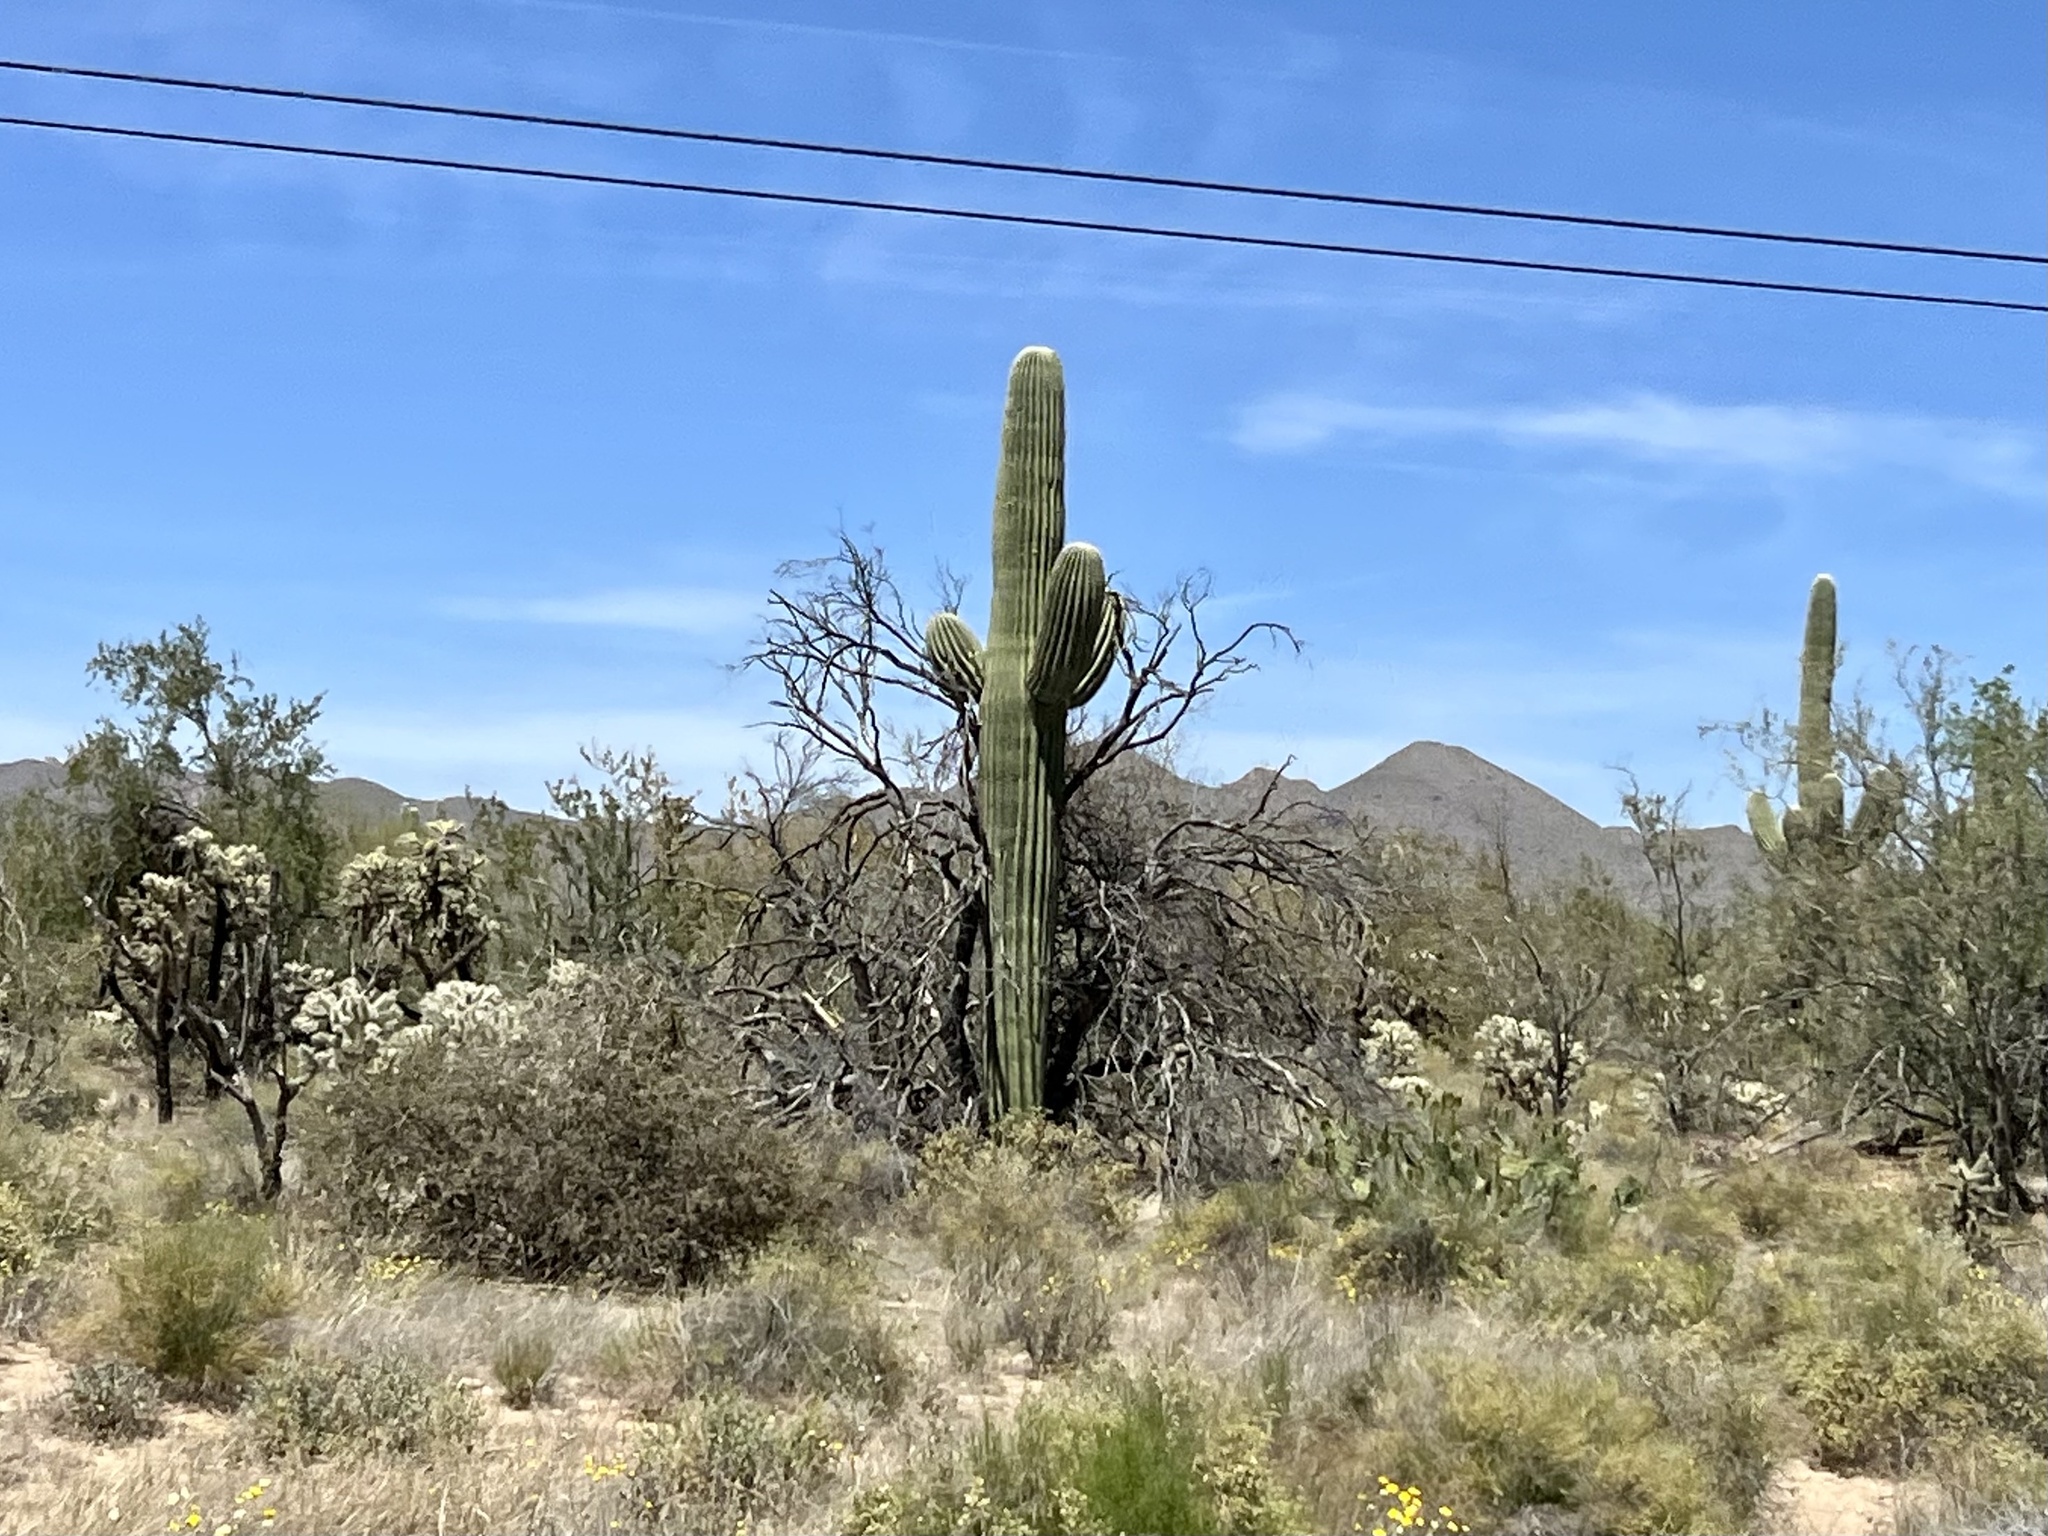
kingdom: Plantae
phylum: Tracheophyta
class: Magnoliopsida
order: Caryophyllales
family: Cactaceae
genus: Carnegiea
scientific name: Carnegiea gigantea
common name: Saguaro
